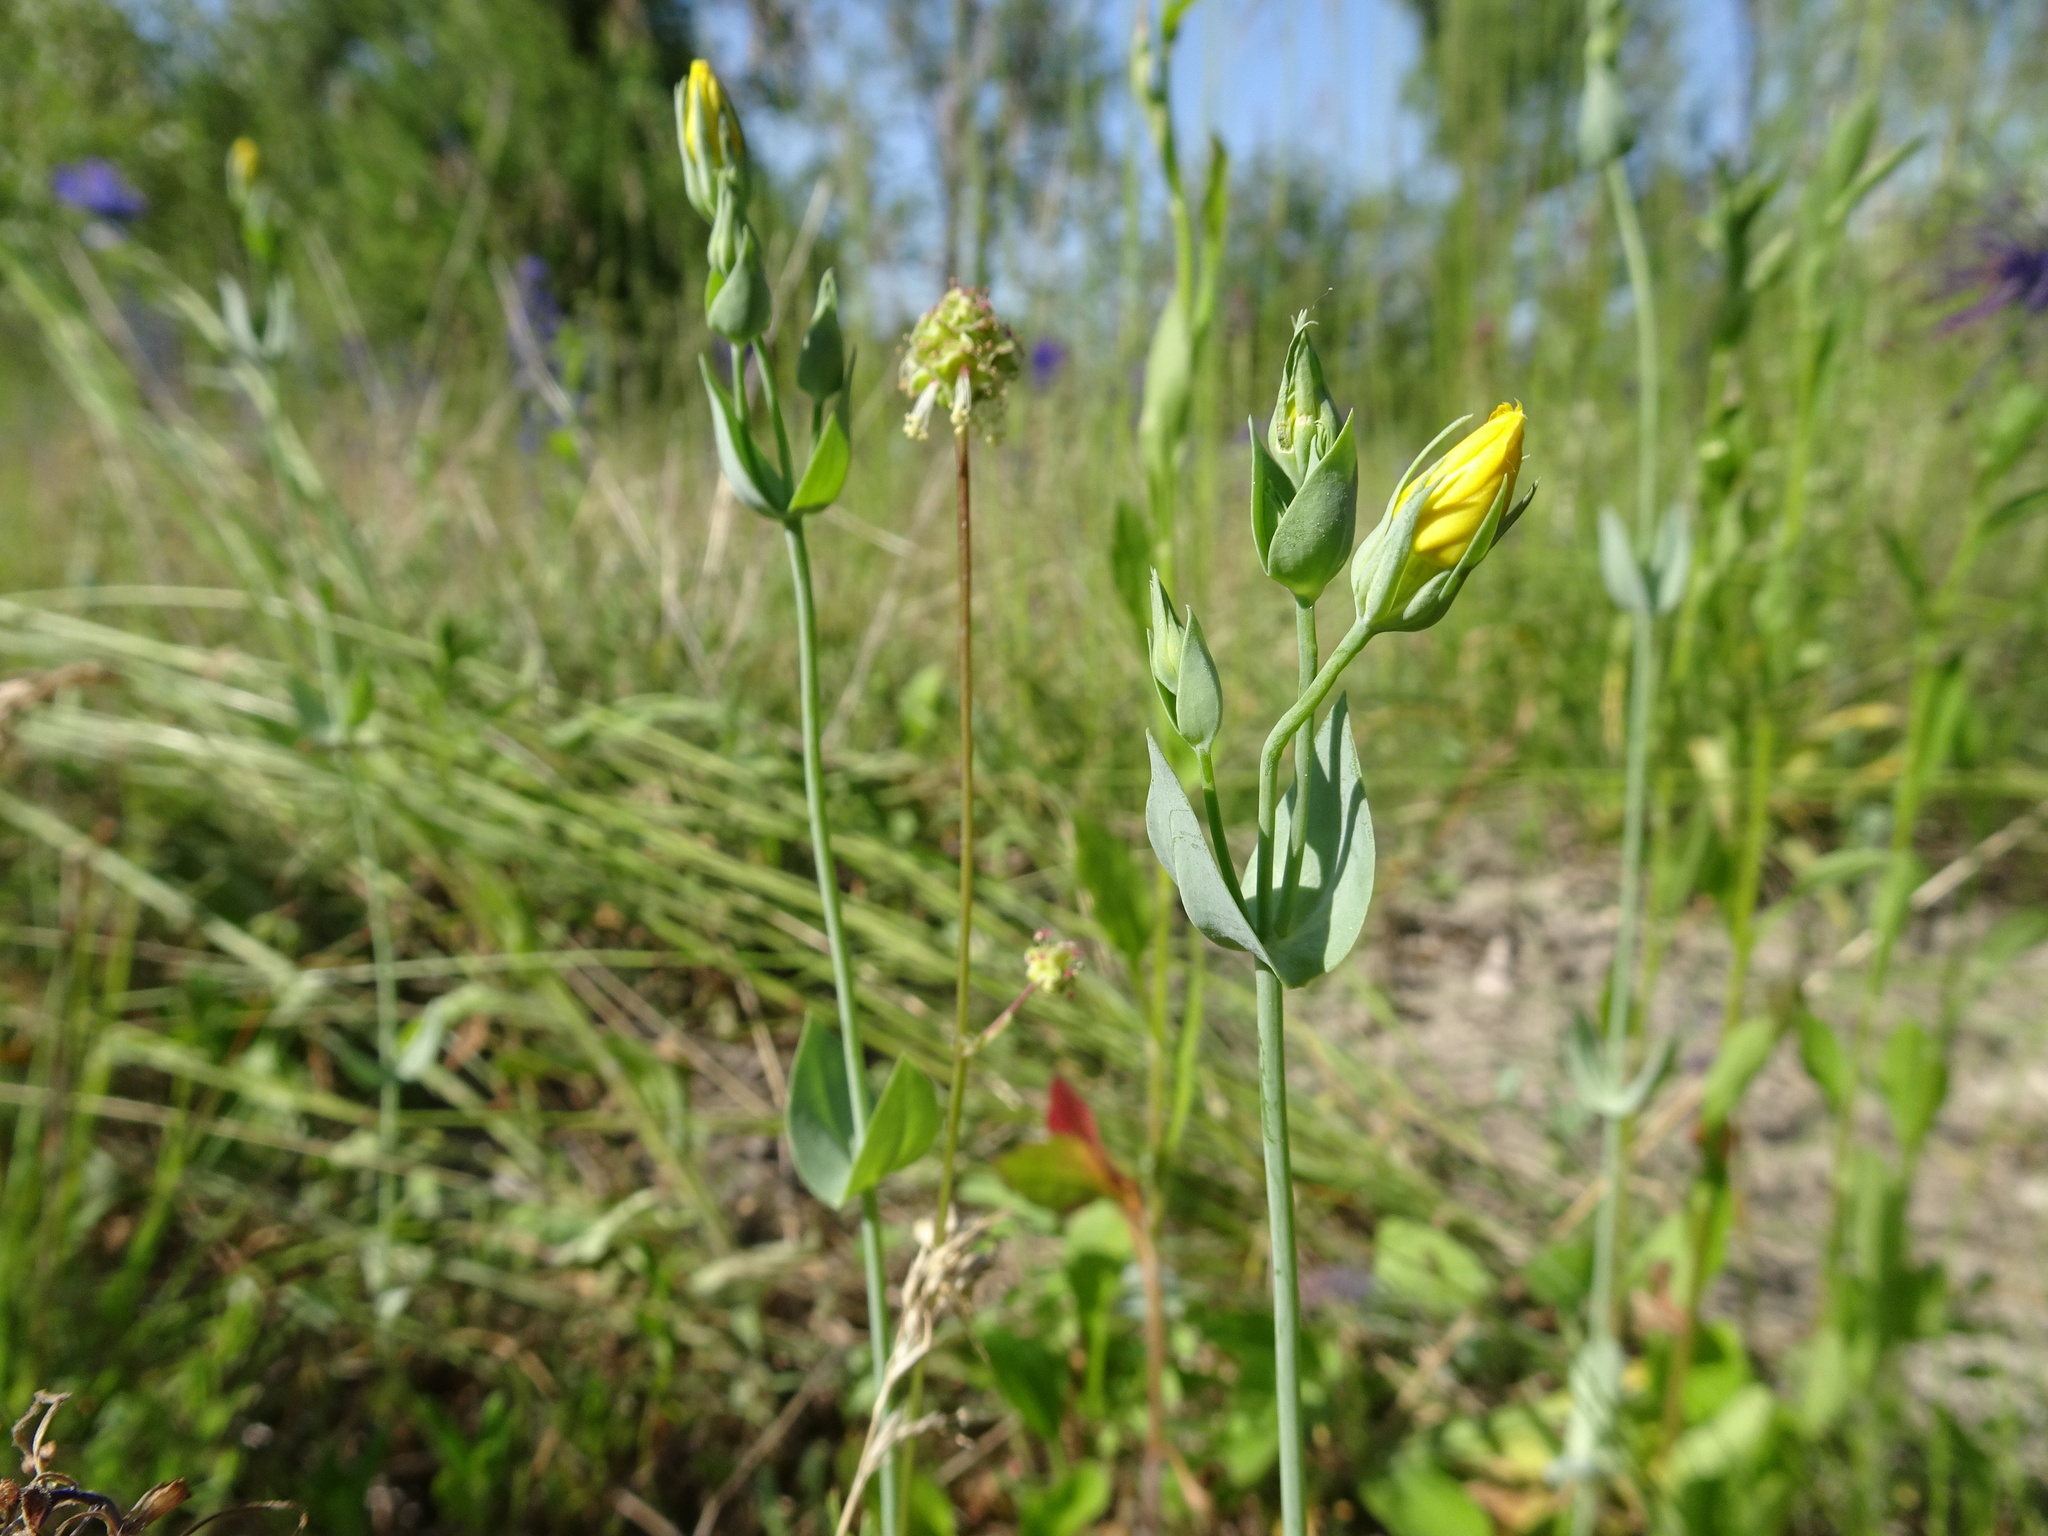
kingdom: Plantae
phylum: Tracheophyta
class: Magnoliopsida
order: Gentianales
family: Gentianaceae
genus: Blackstonia
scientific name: Blackstonia perfoliata
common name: Yellow-wort
